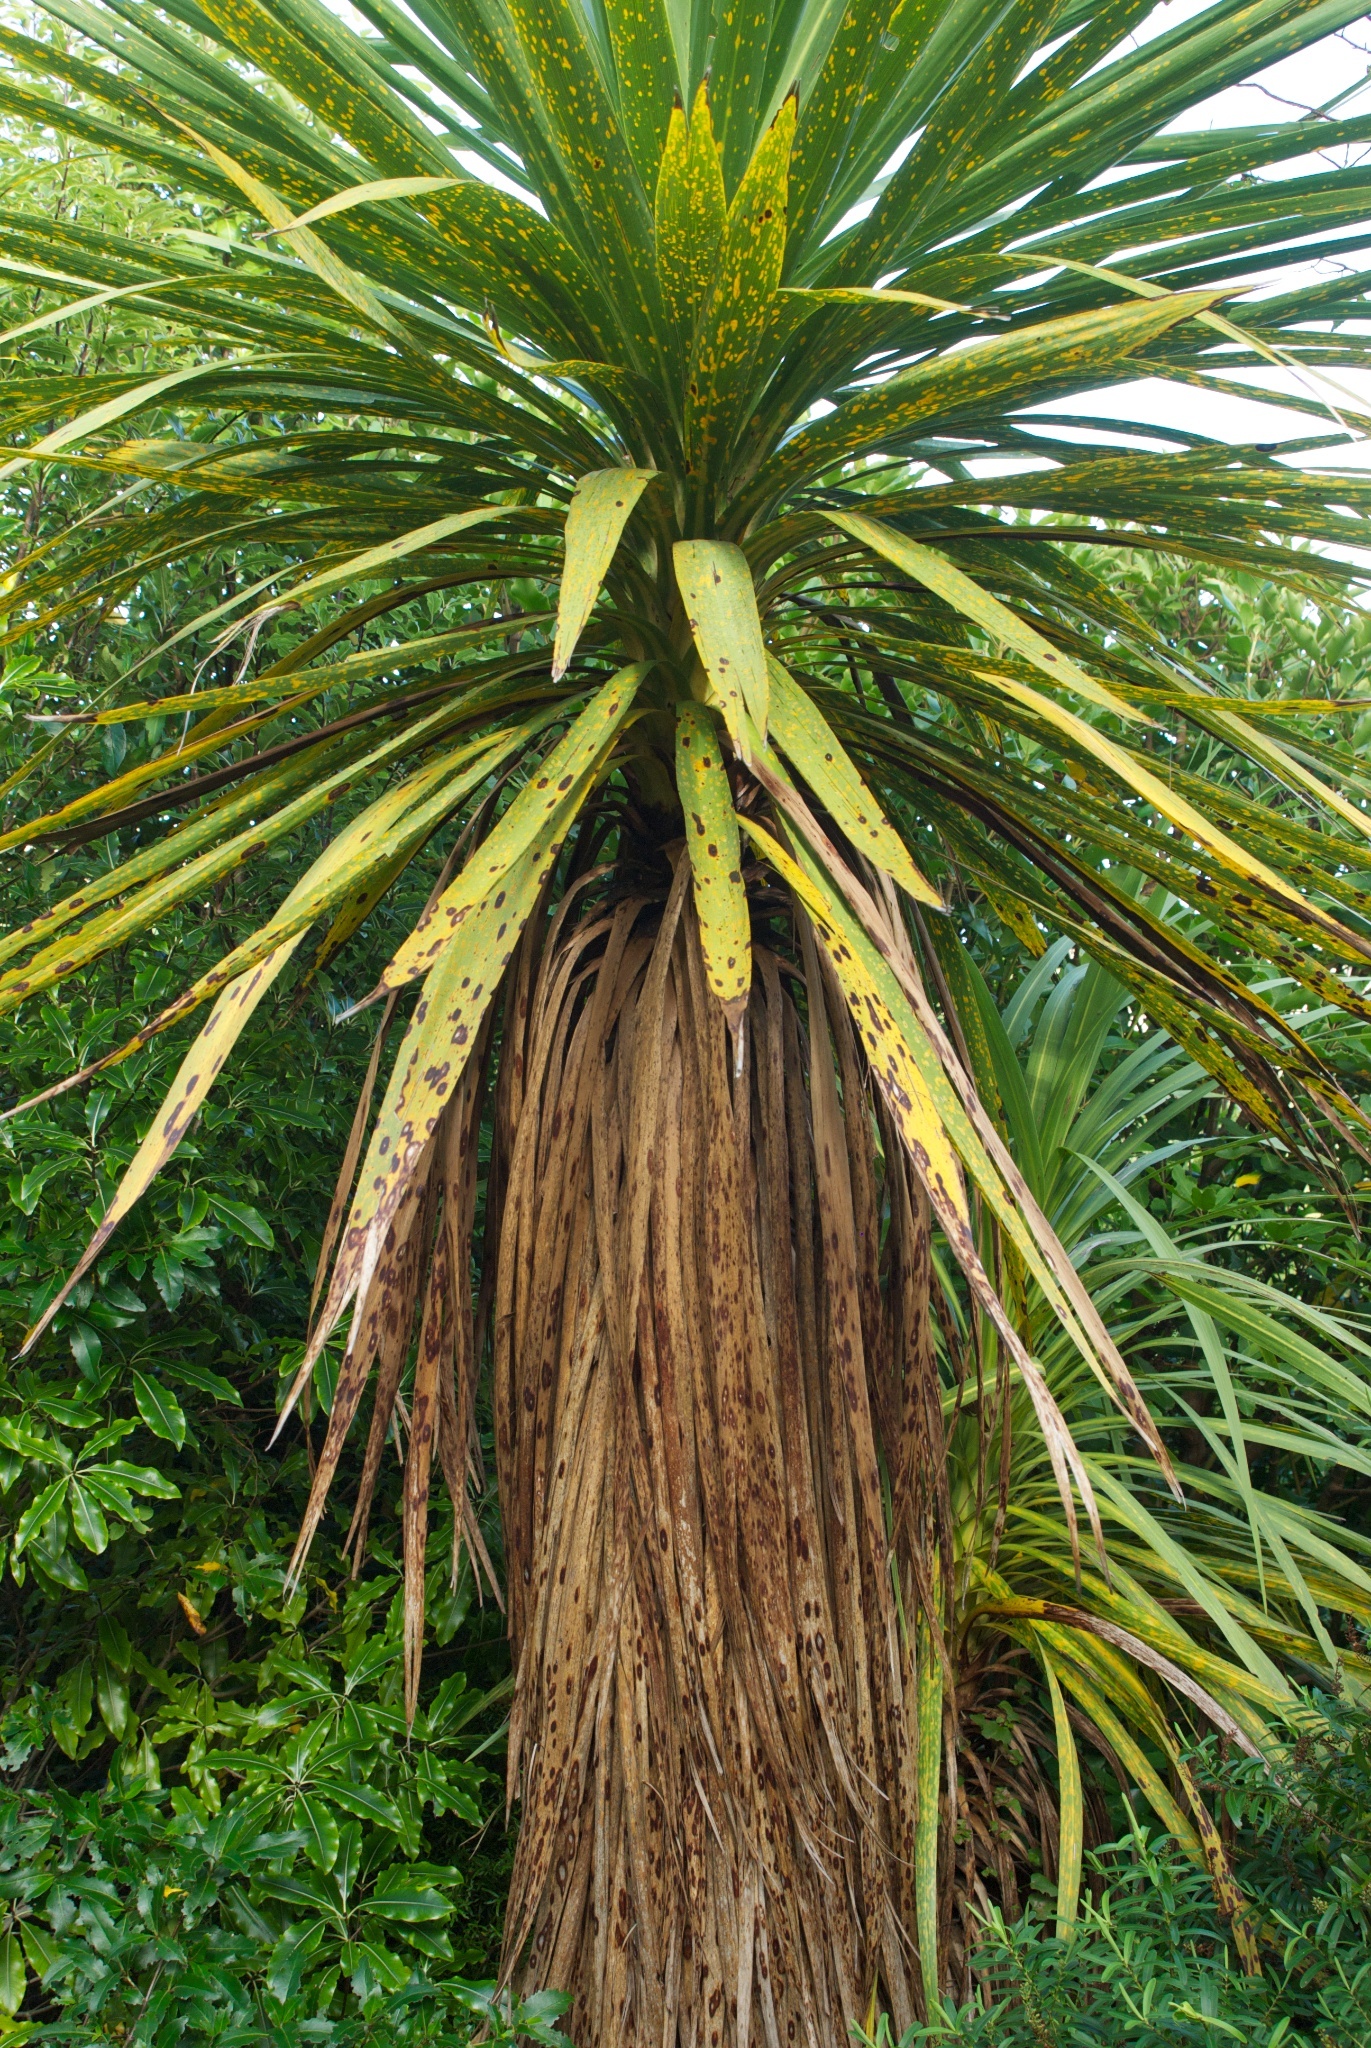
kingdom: Plantae
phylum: Tracheophyta
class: Liliopsida
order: Asparagales
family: Asparagaceae
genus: Cordyline
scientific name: Cordyline australis
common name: Cabbage-palm
